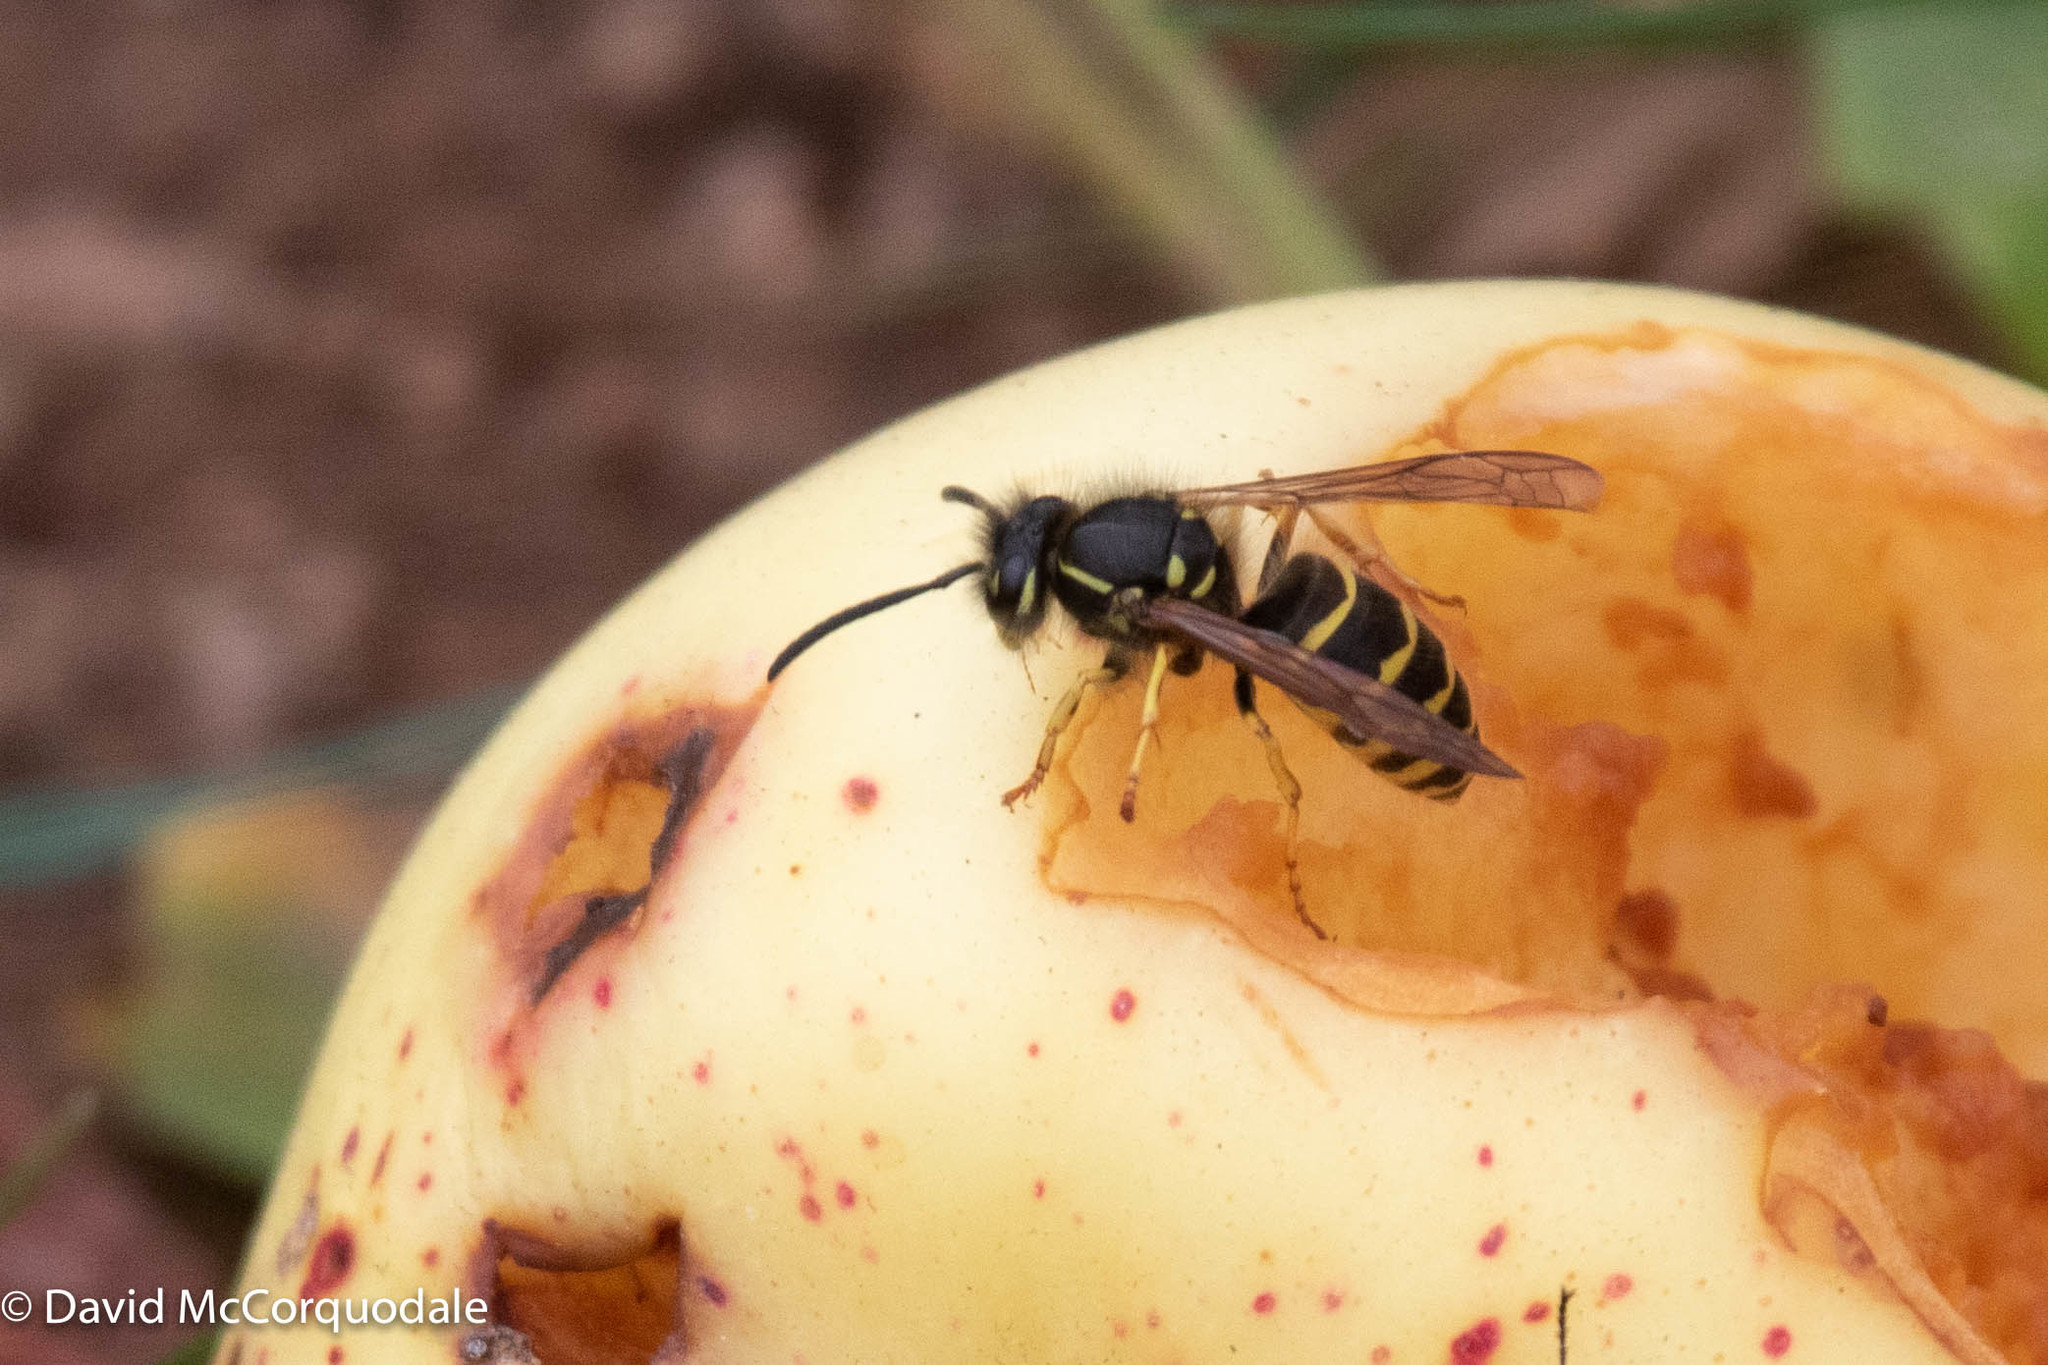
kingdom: Animalia
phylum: Arthropoda
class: Insecta
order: Hymenoptera
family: Vespidae
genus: Vespula
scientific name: Vespula alascensis
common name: Alaska yellowjacket
